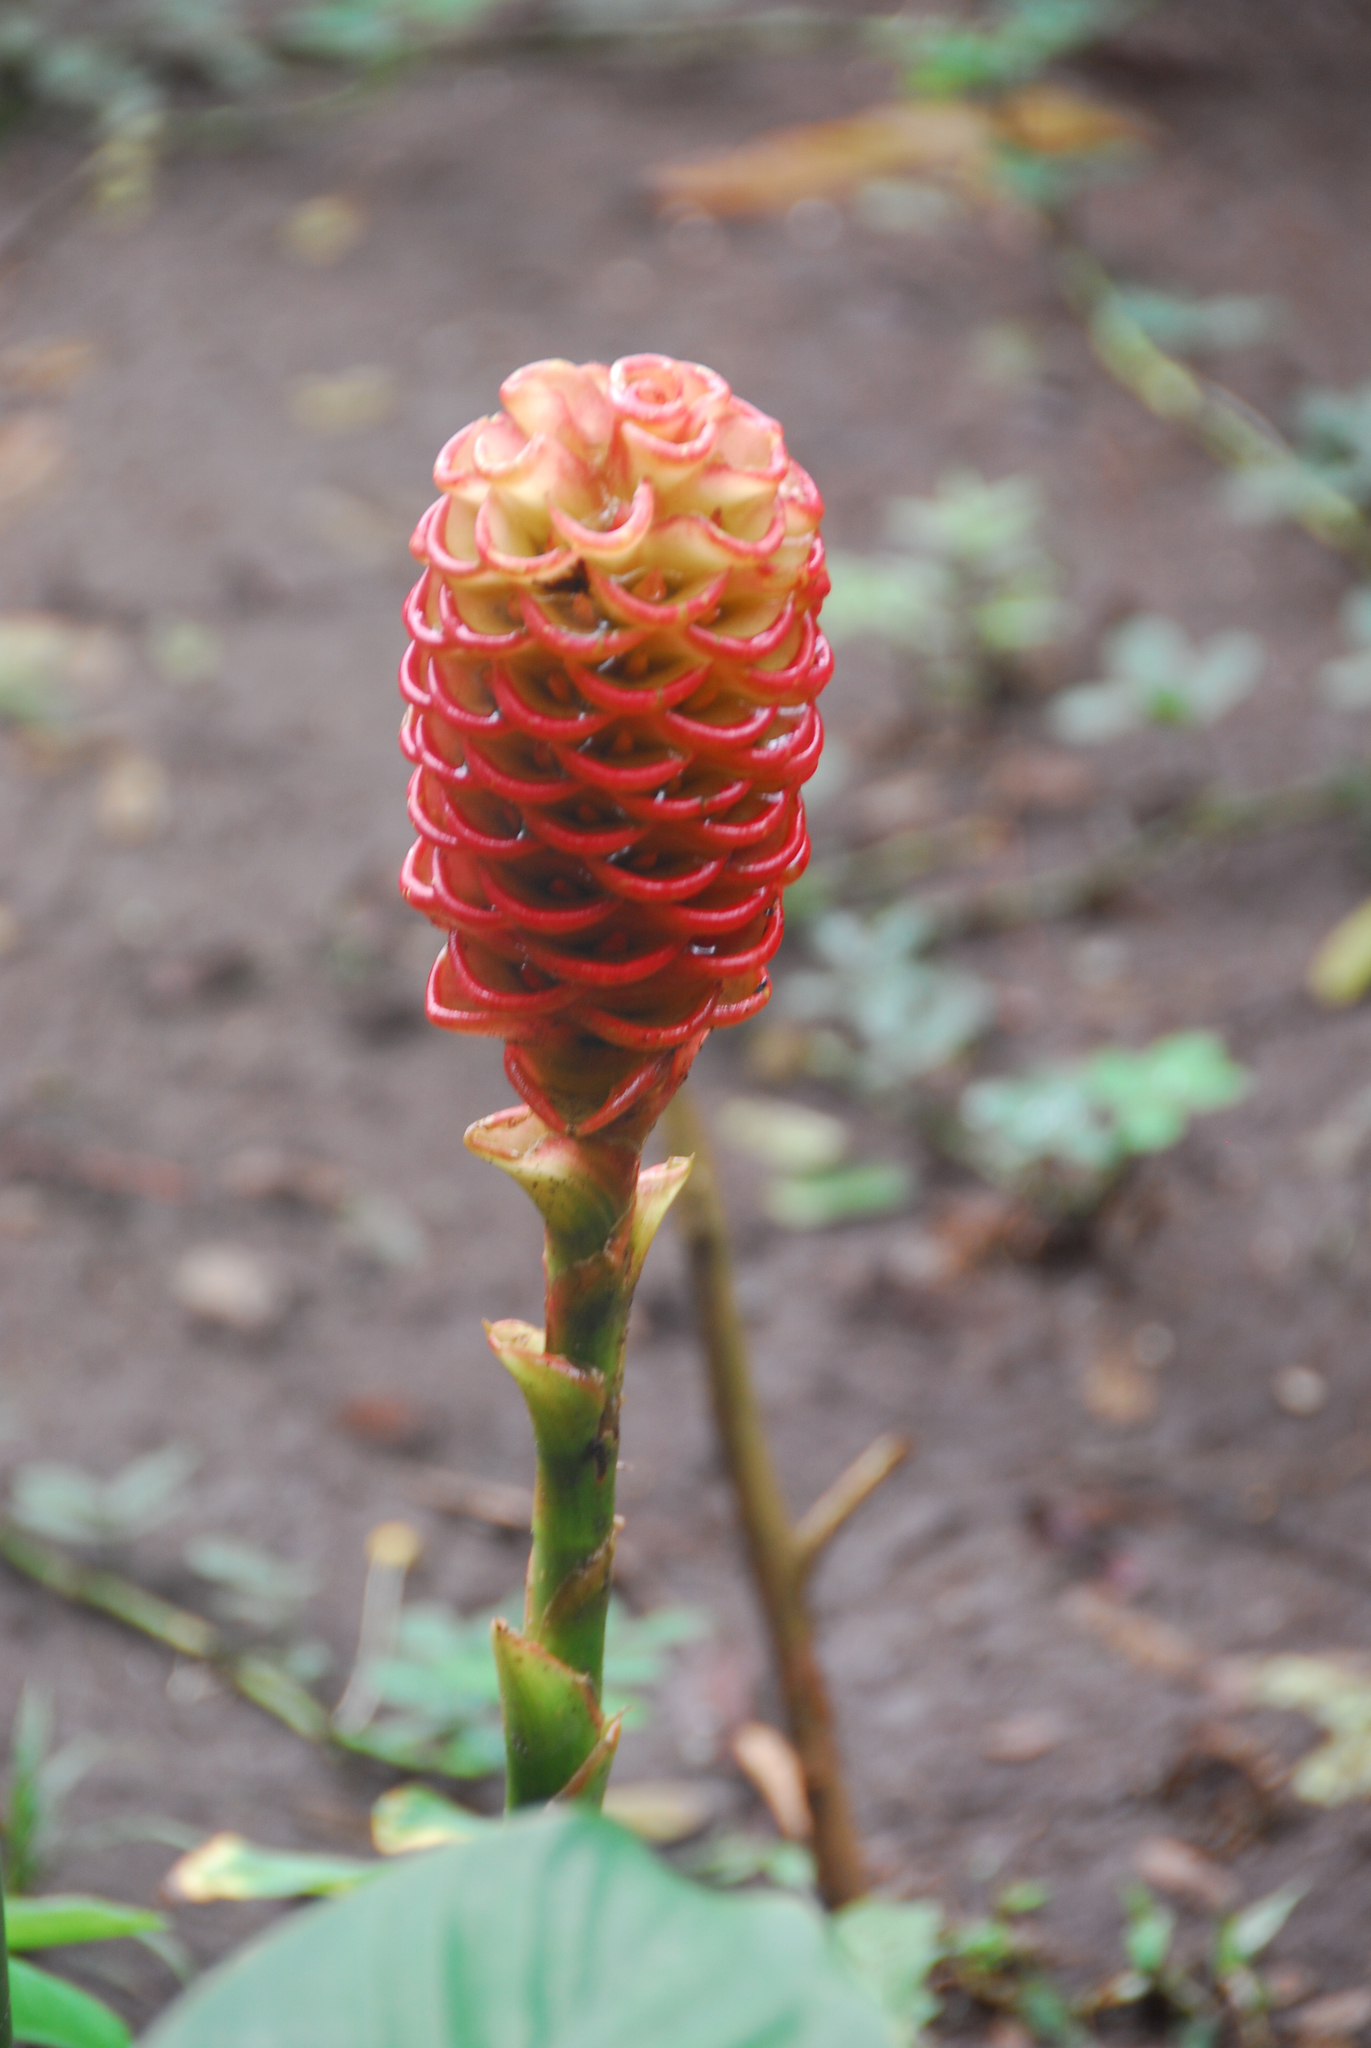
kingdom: Plantae
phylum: Tracheophyta
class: Liliopsida
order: Zingiberales
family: Zingiberaceae
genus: Zingiber
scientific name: Zingiber spectabile
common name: Beehive ginger
